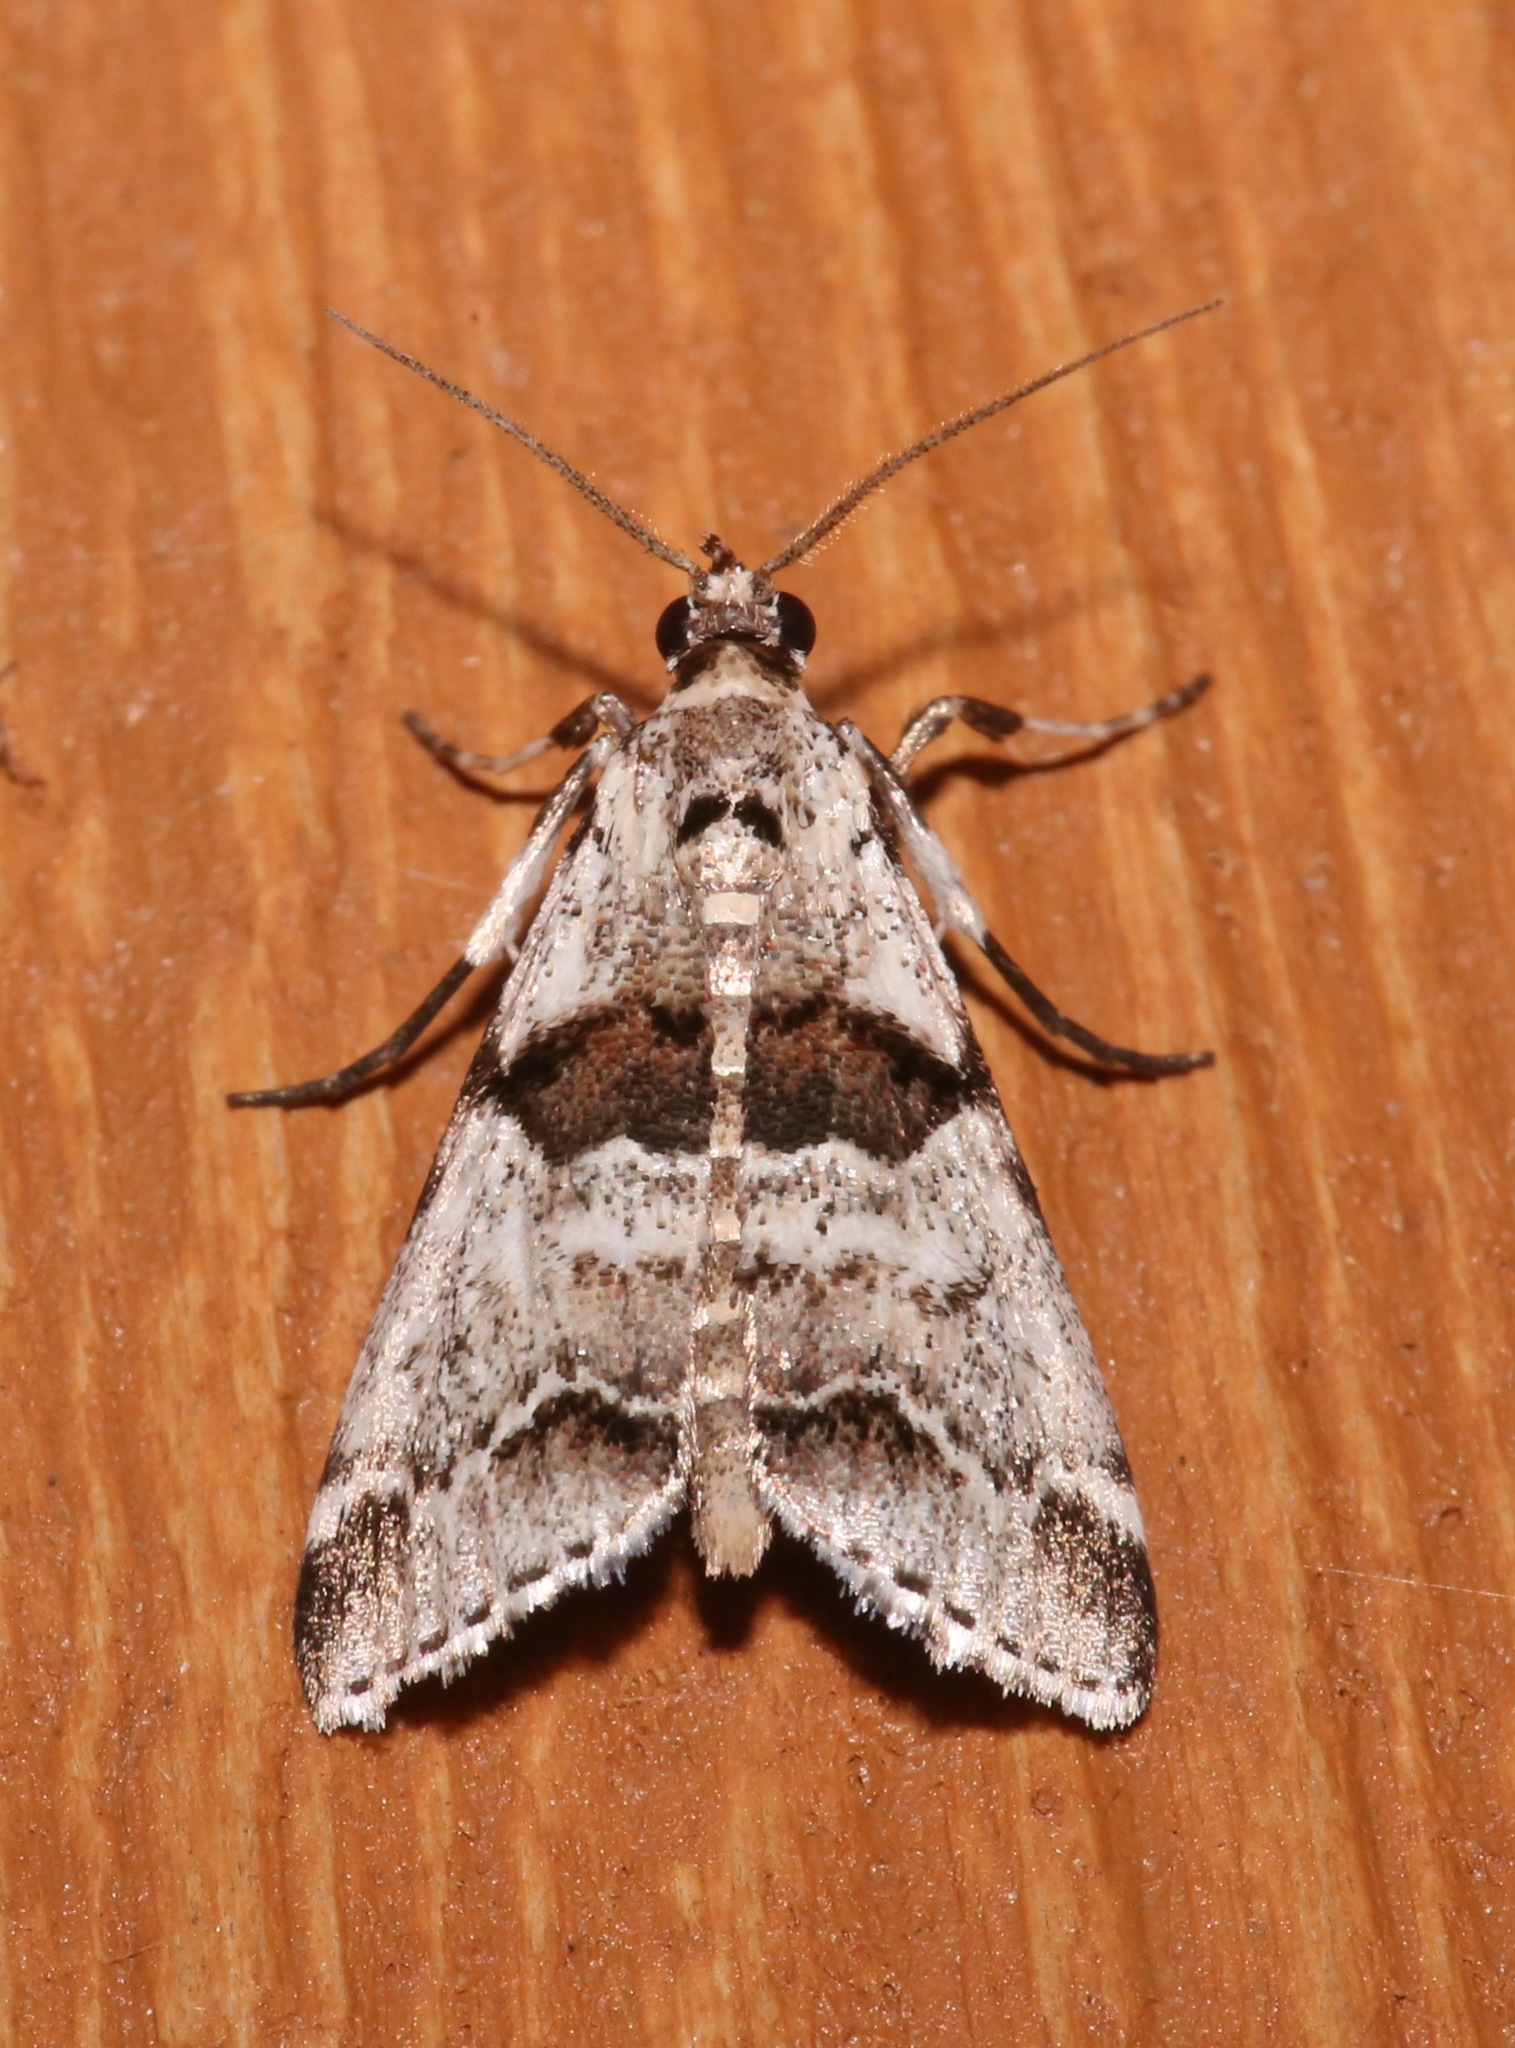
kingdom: Animalia
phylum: Arthropoda
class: Insecta
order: Lepidoptera
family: Pyralidae
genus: Tallula
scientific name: Tallula atrifascialis
